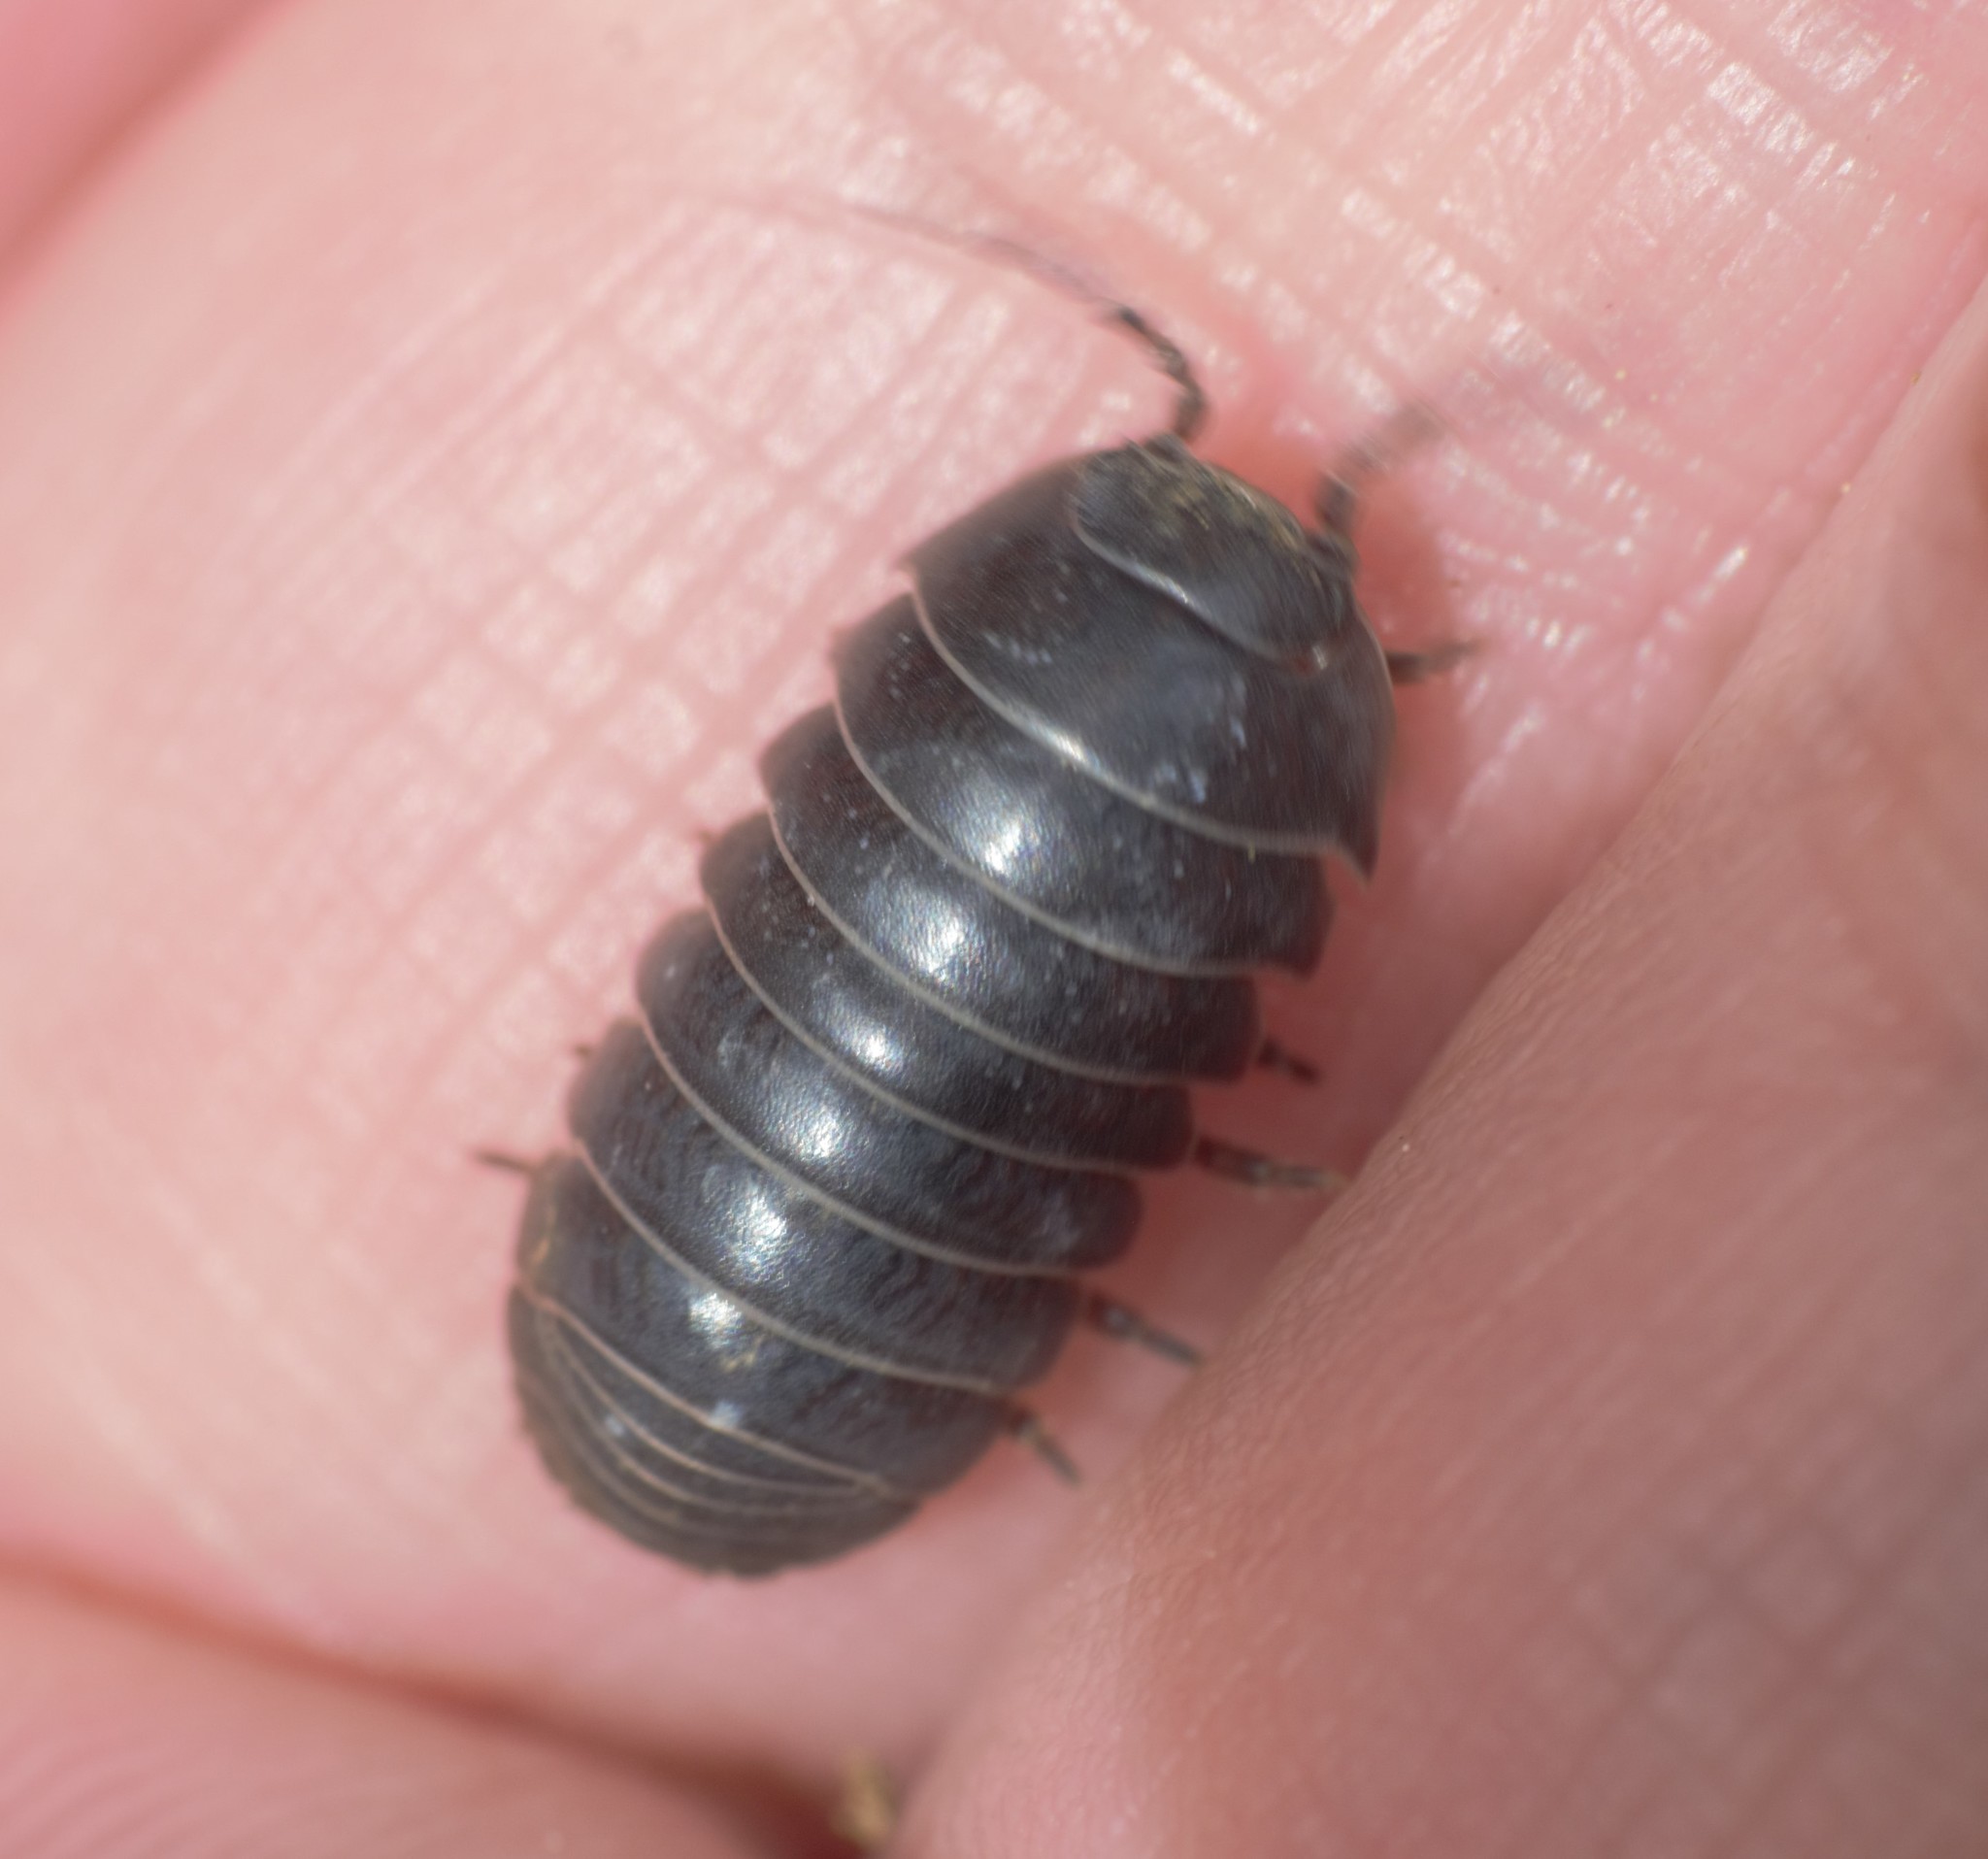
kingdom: Animalia
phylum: Arthropoda
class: Malacostraca
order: Isopoda
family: Armadillidiidae
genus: Armadillidium
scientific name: Armadillidium vulgare
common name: Common pill woodlouse
